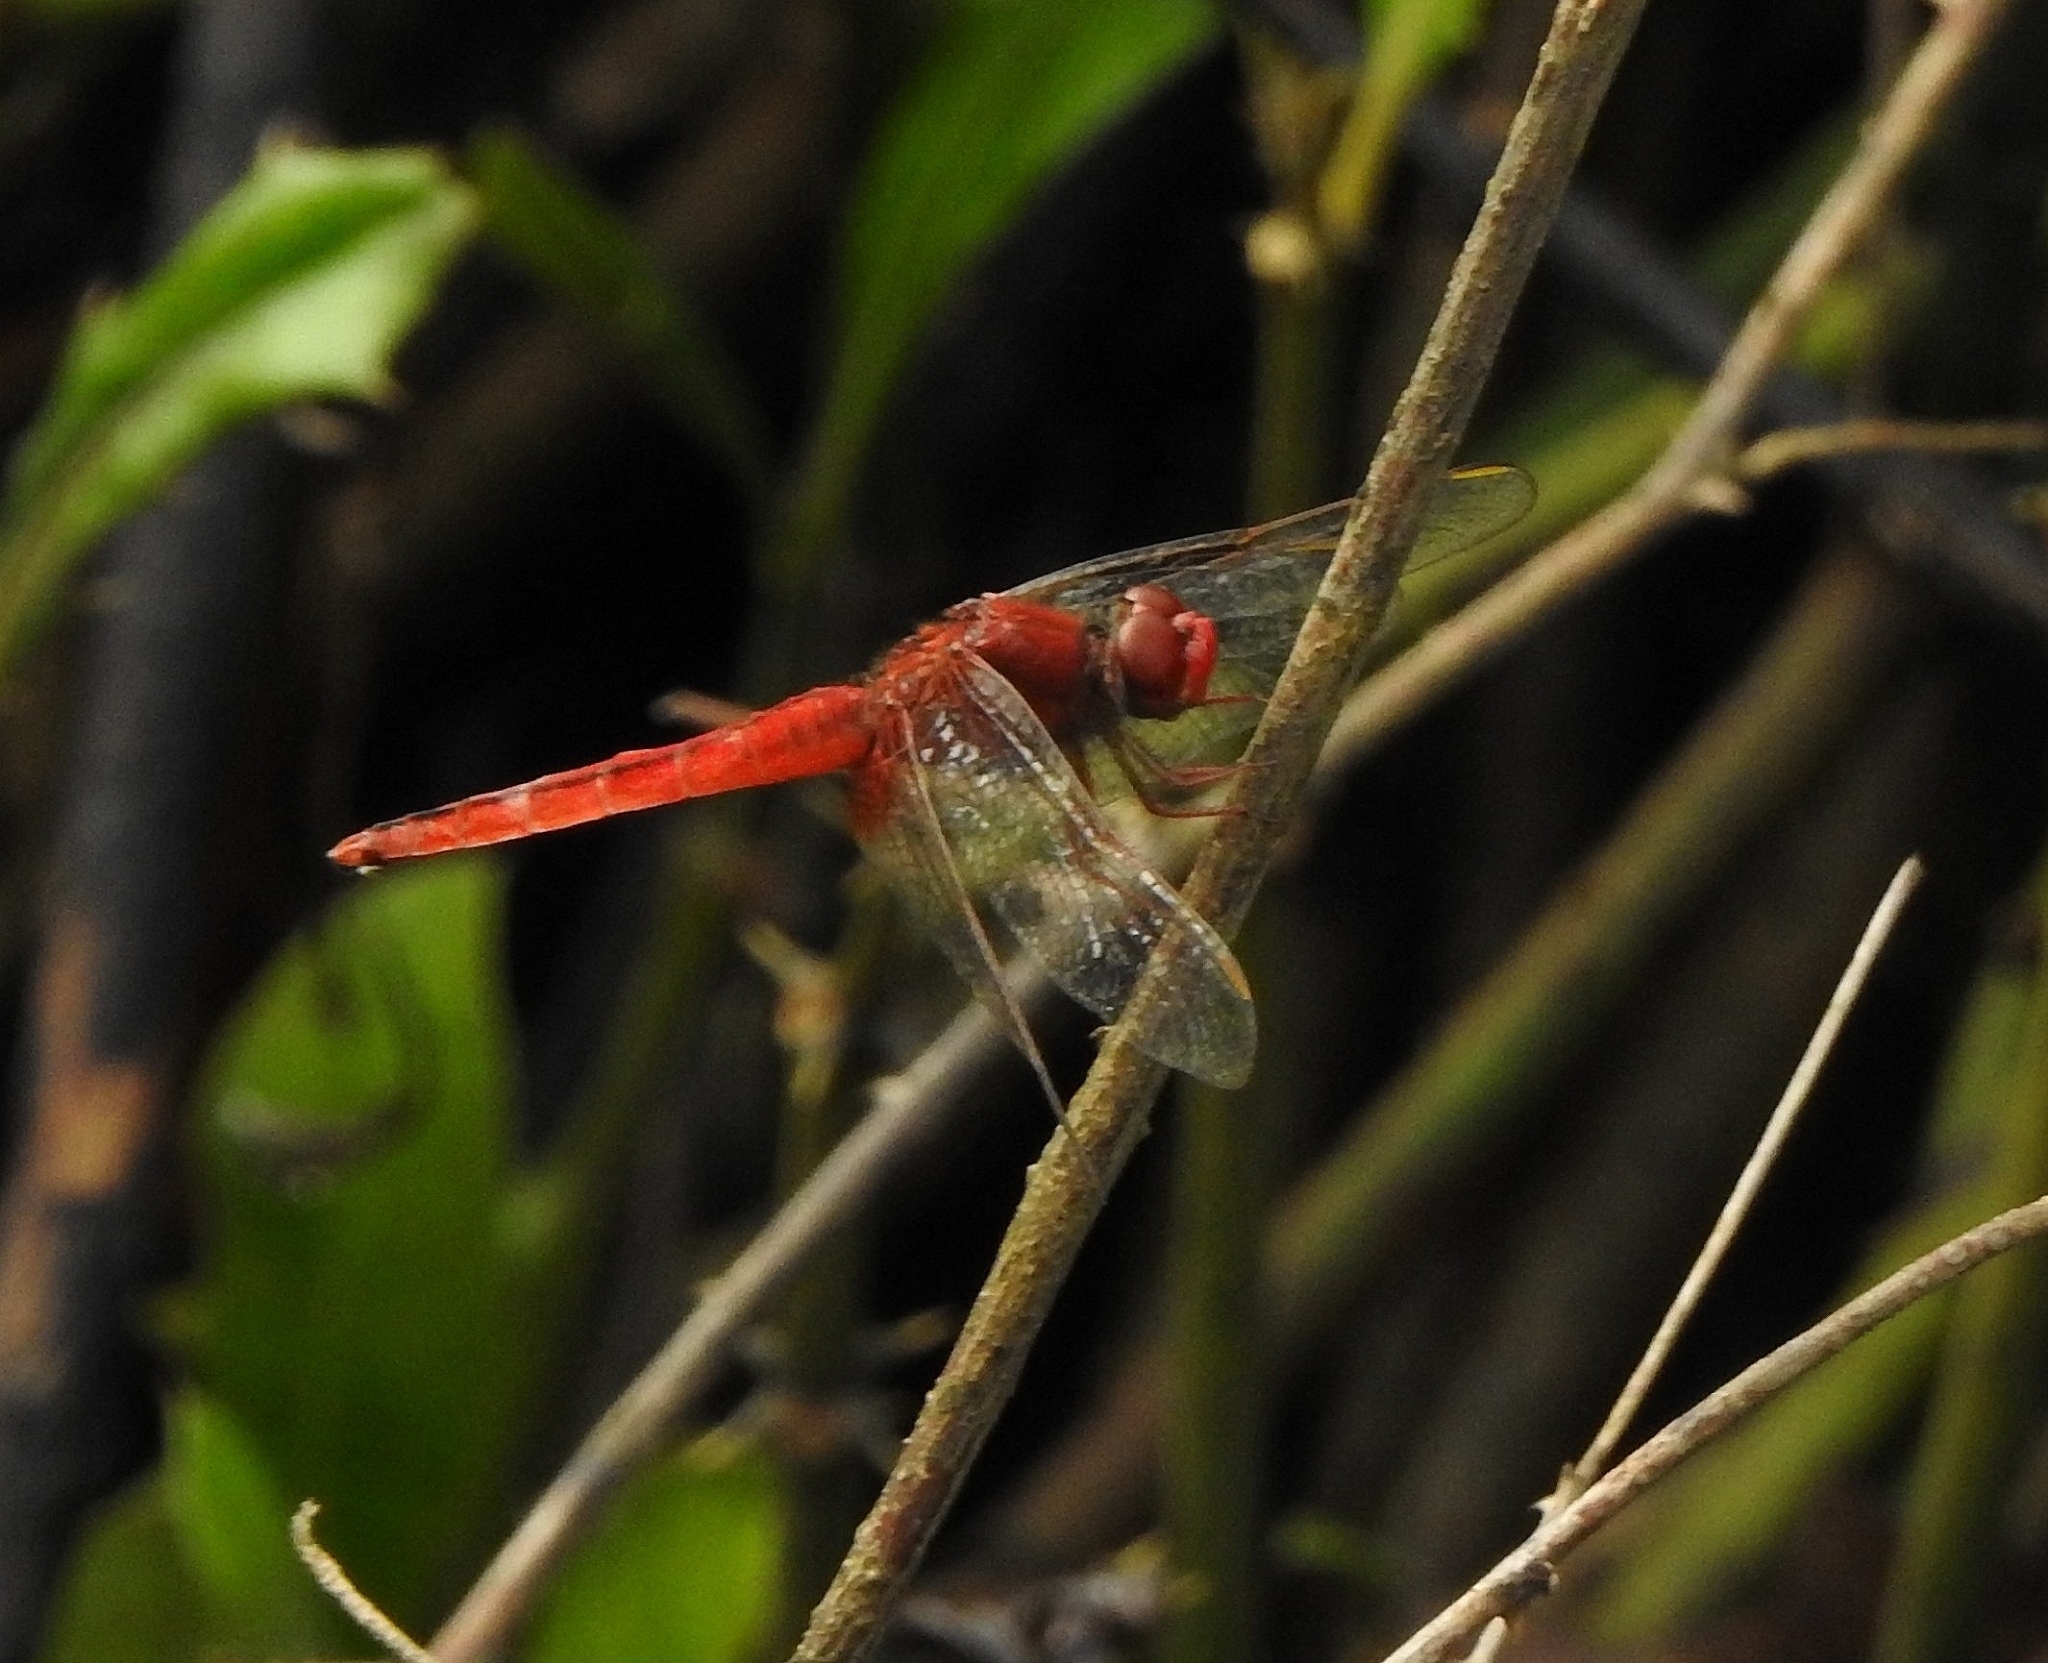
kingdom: Animalia
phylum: Arthropoda
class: Insecta
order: Odonata
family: Libellulidae
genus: Crocothemis
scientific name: Crocothemis servilia
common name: Scarlet skimmer
